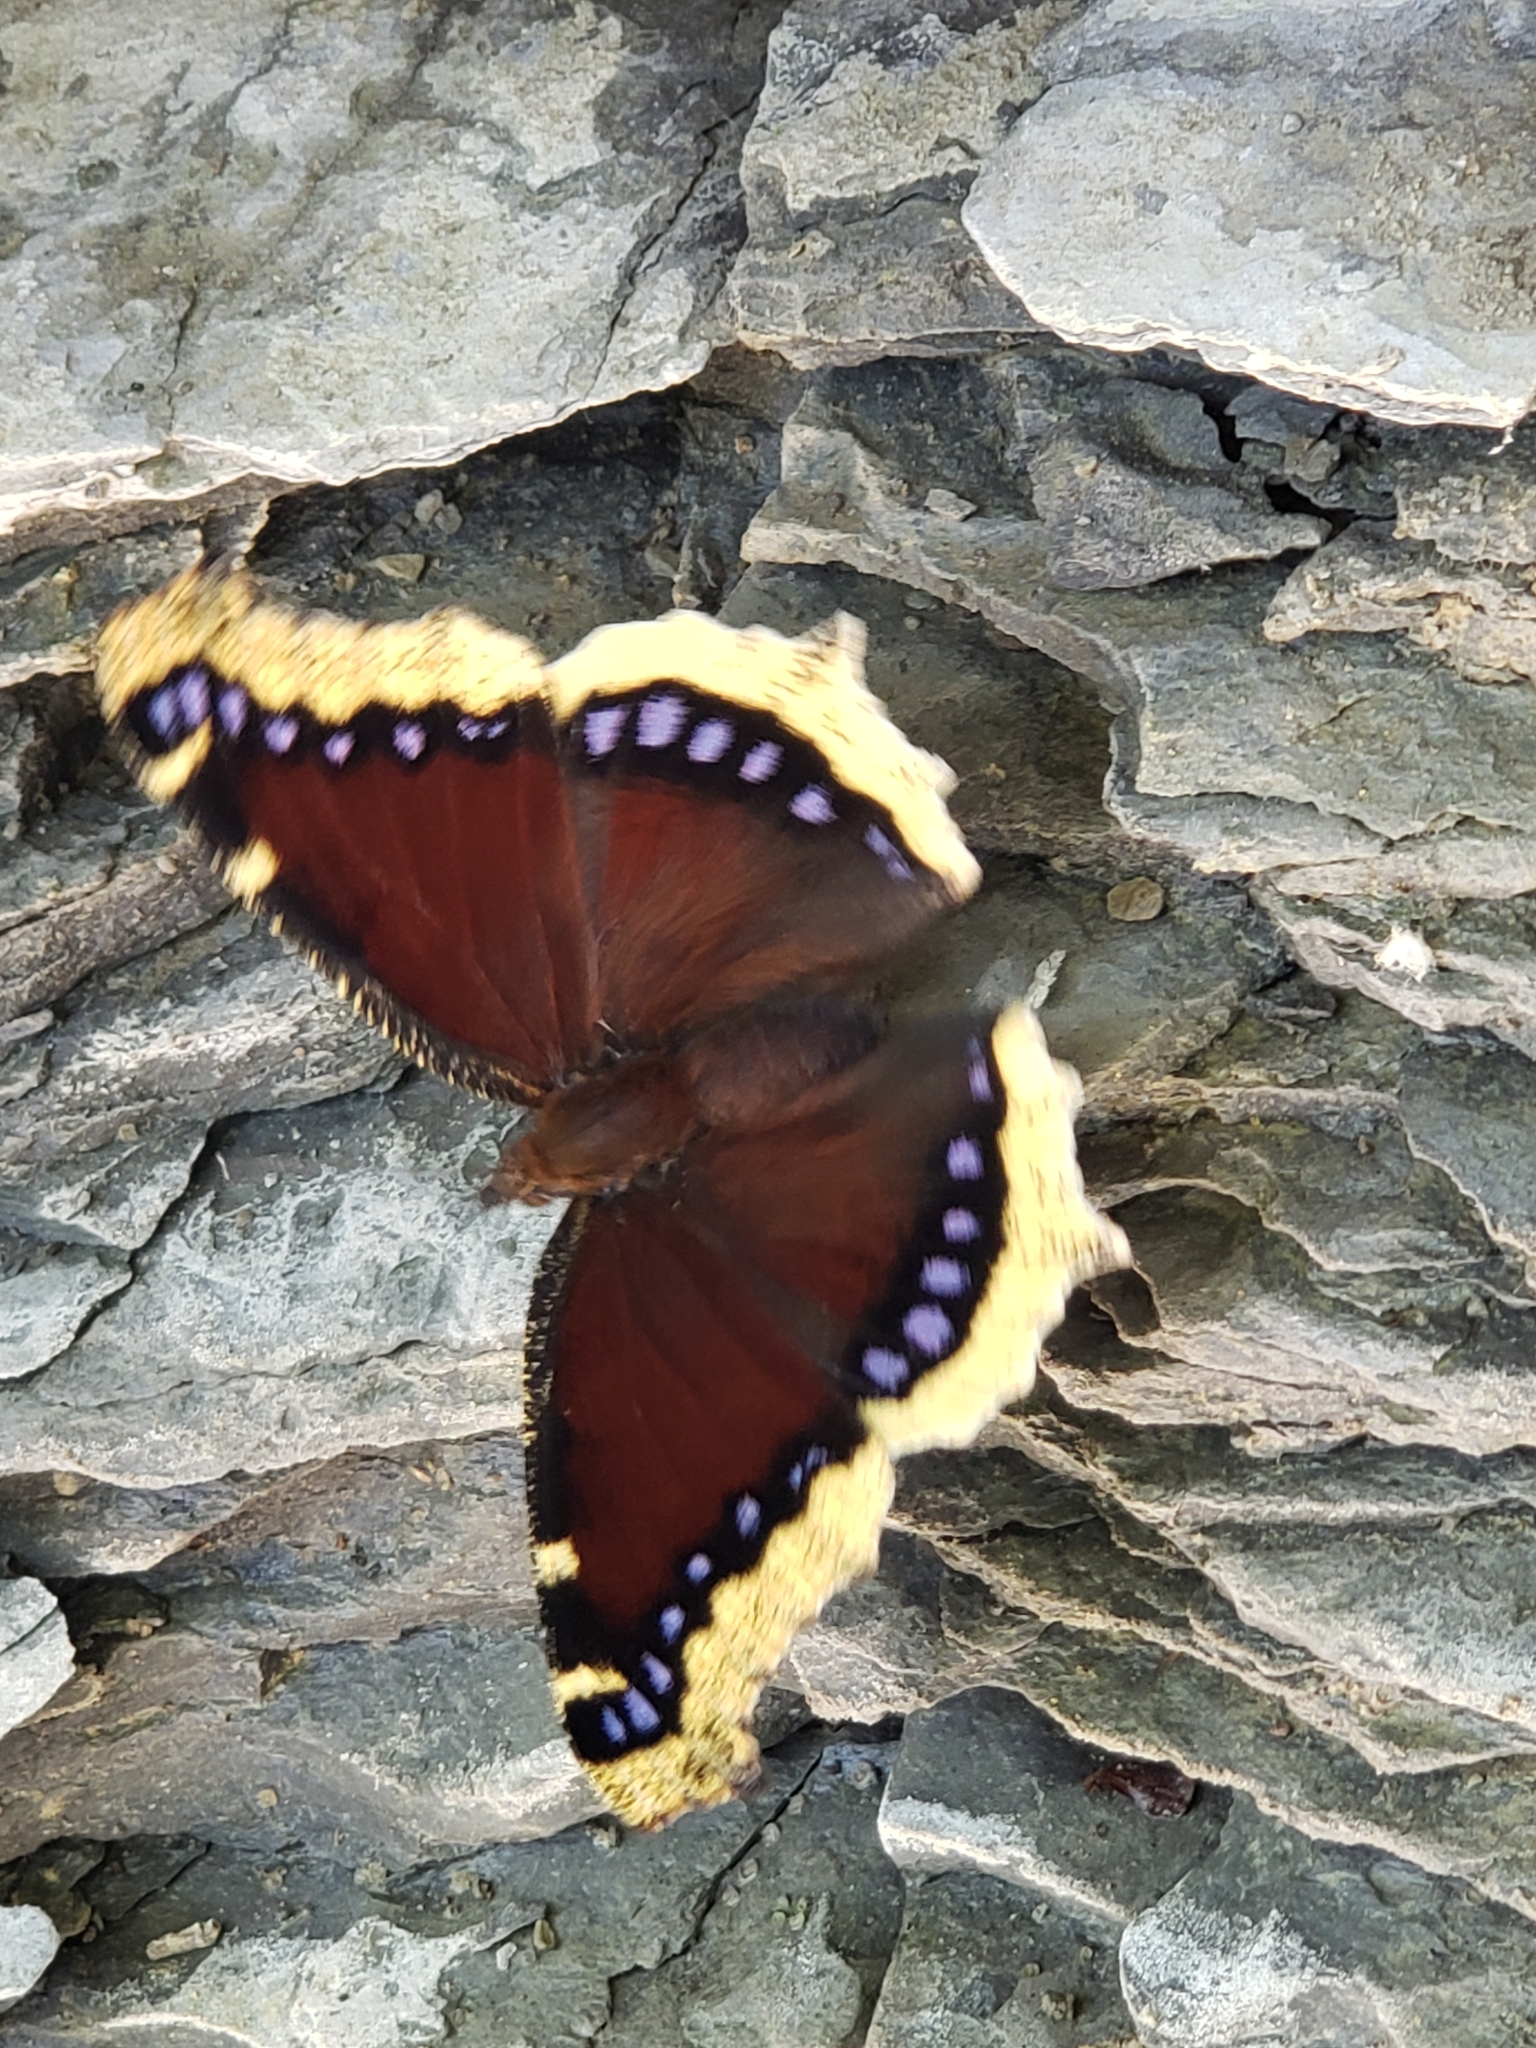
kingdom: Animalia
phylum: Arthropoda
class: Insecta
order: Lepidoptera
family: Nymphalidae
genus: Nymphalis
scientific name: Nymphalis antiopa
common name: Camberwell beauty
